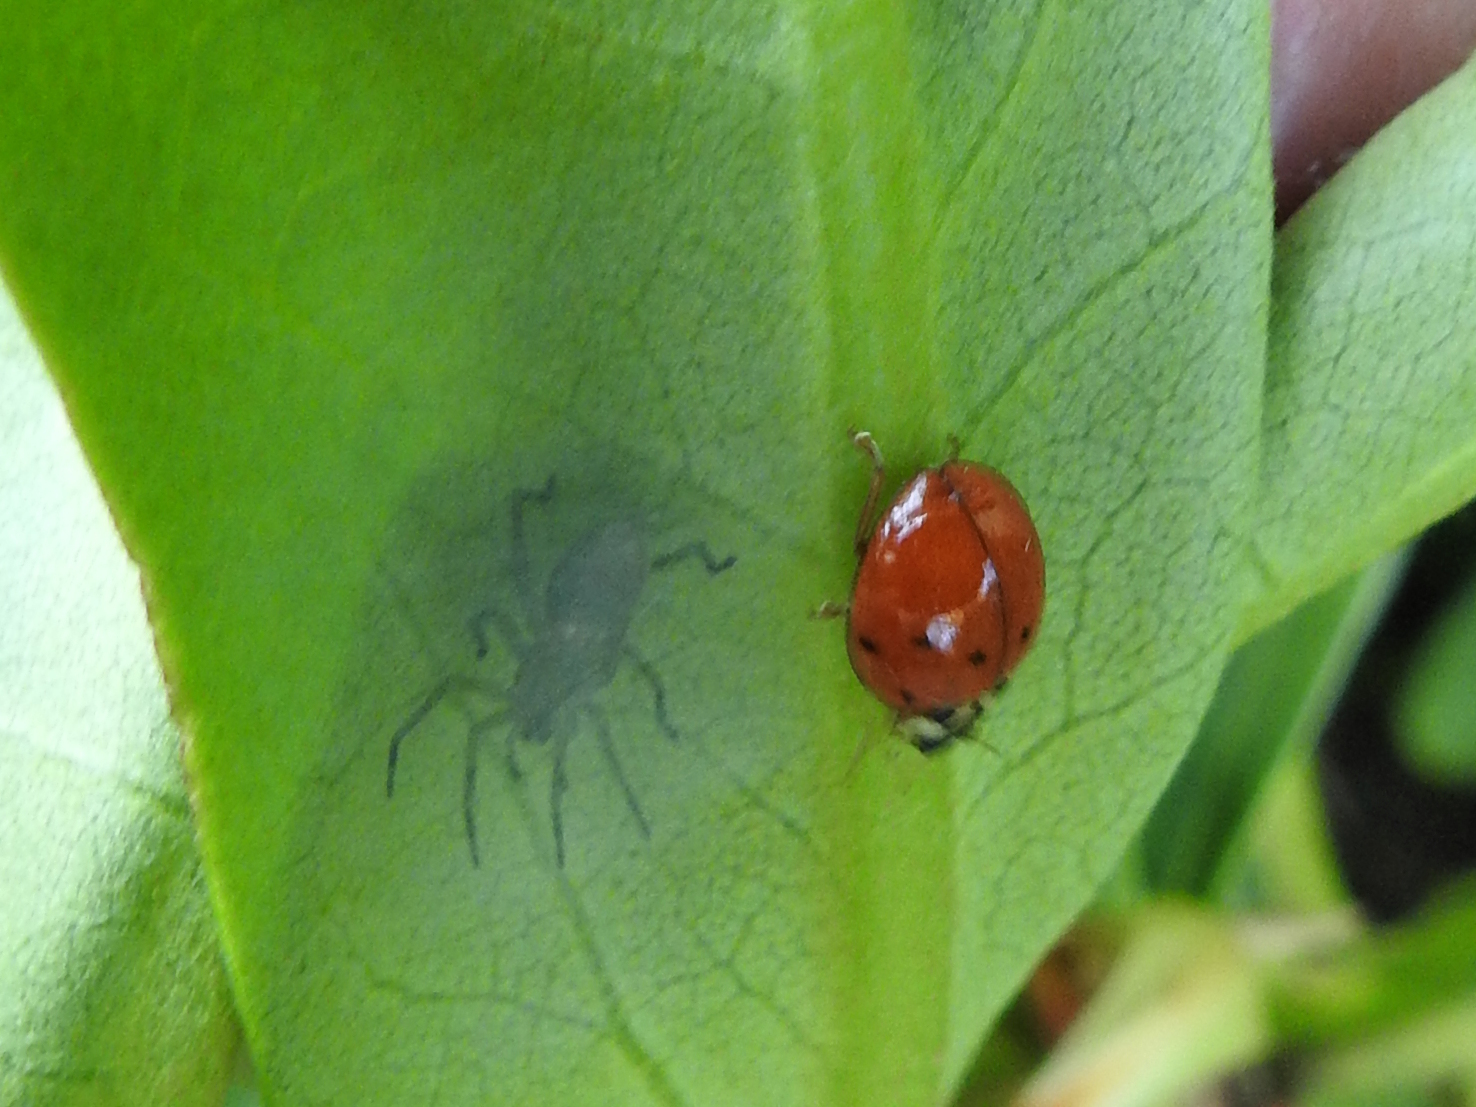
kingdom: Animalia
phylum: Arthropoda
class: Insecta
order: Coleoptera
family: Coccinellidae
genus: Harmonia
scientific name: Harmonia axyridis
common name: Harlequin ladybird
